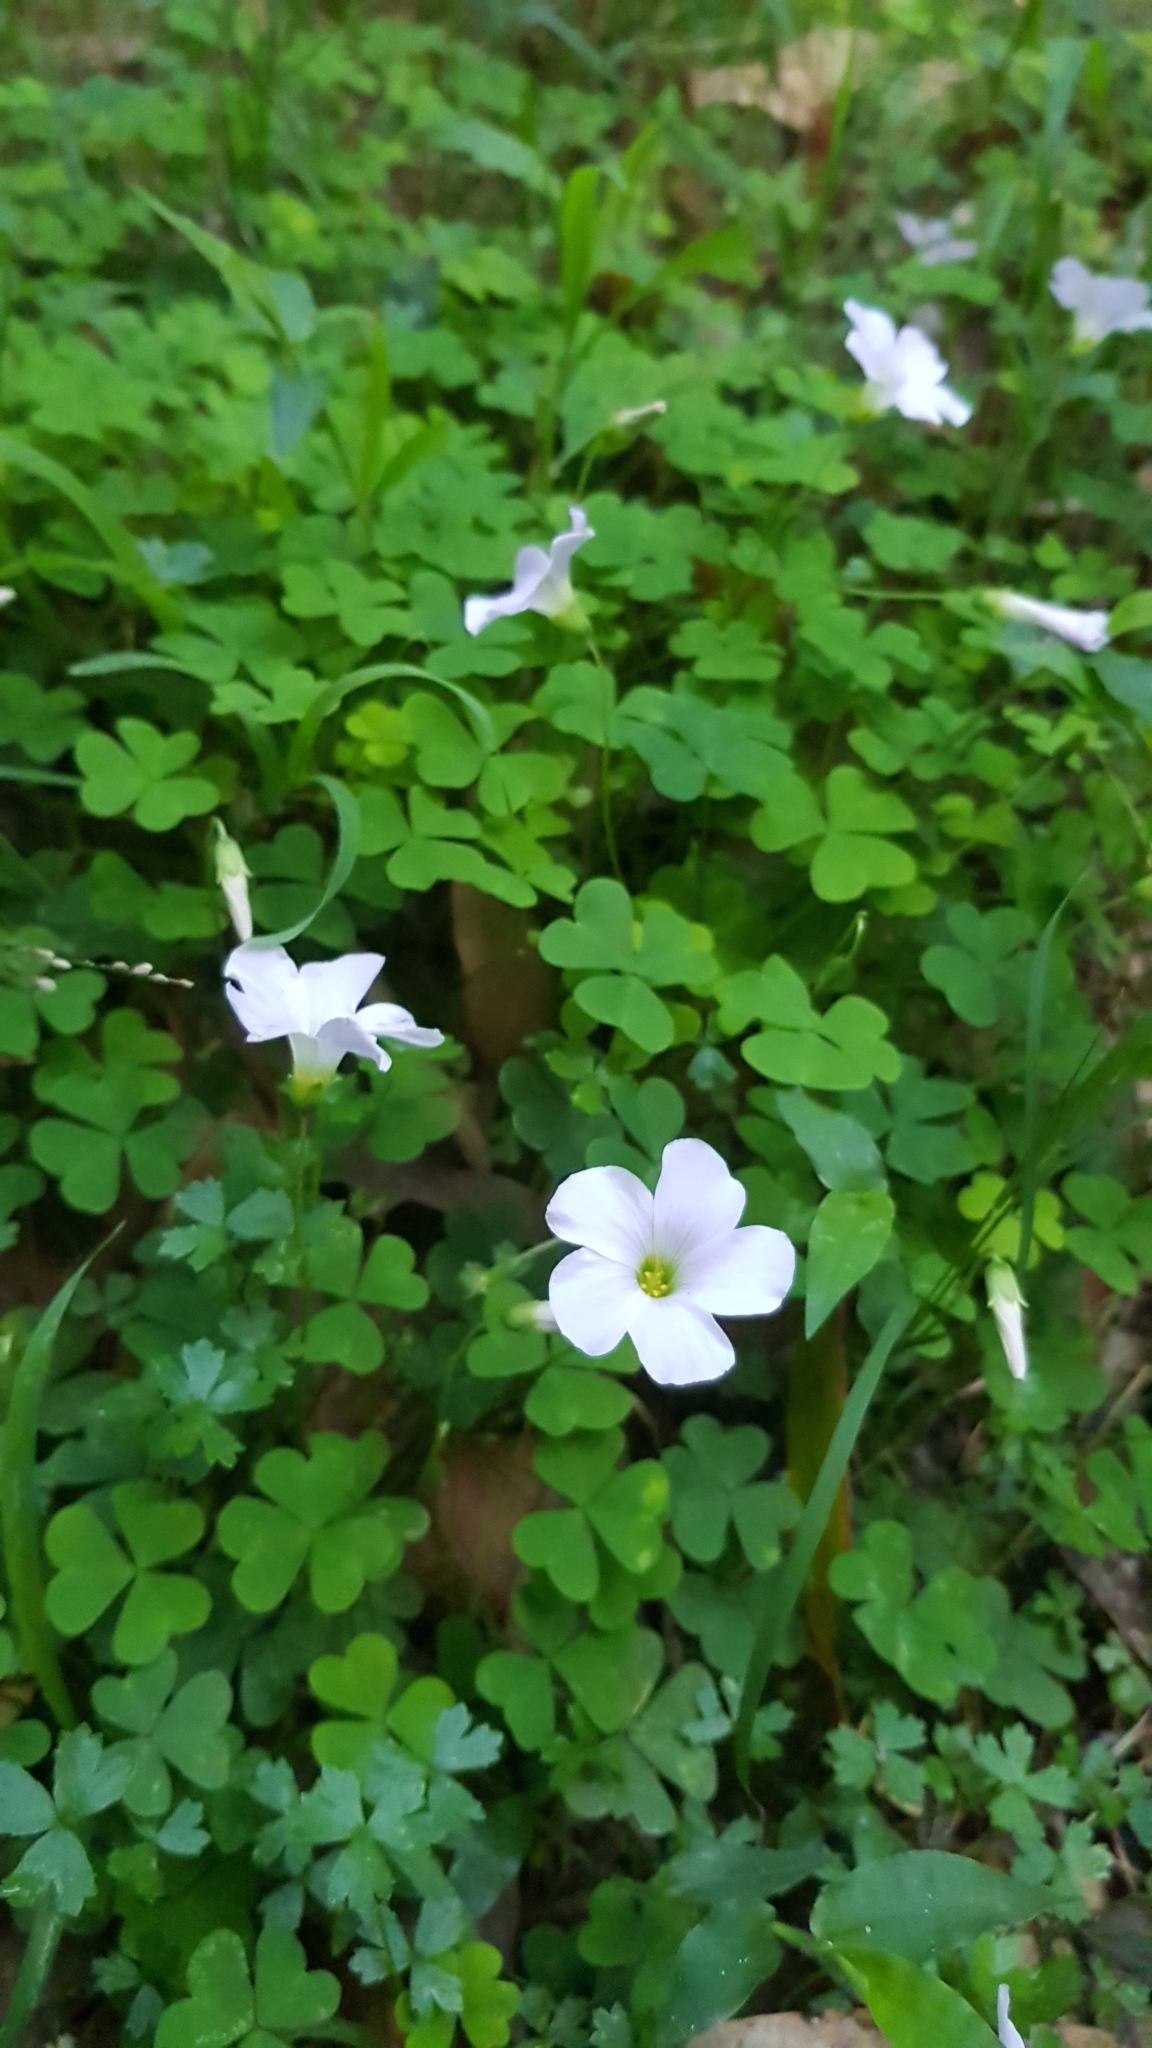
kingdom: Plantae
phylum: Tracheophyta
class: Magnoliopsida
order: Oxalidales
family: Oxalidaceae
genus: Oxalis
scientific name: Oxalis incarnata
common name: Pale pink-sorrel
